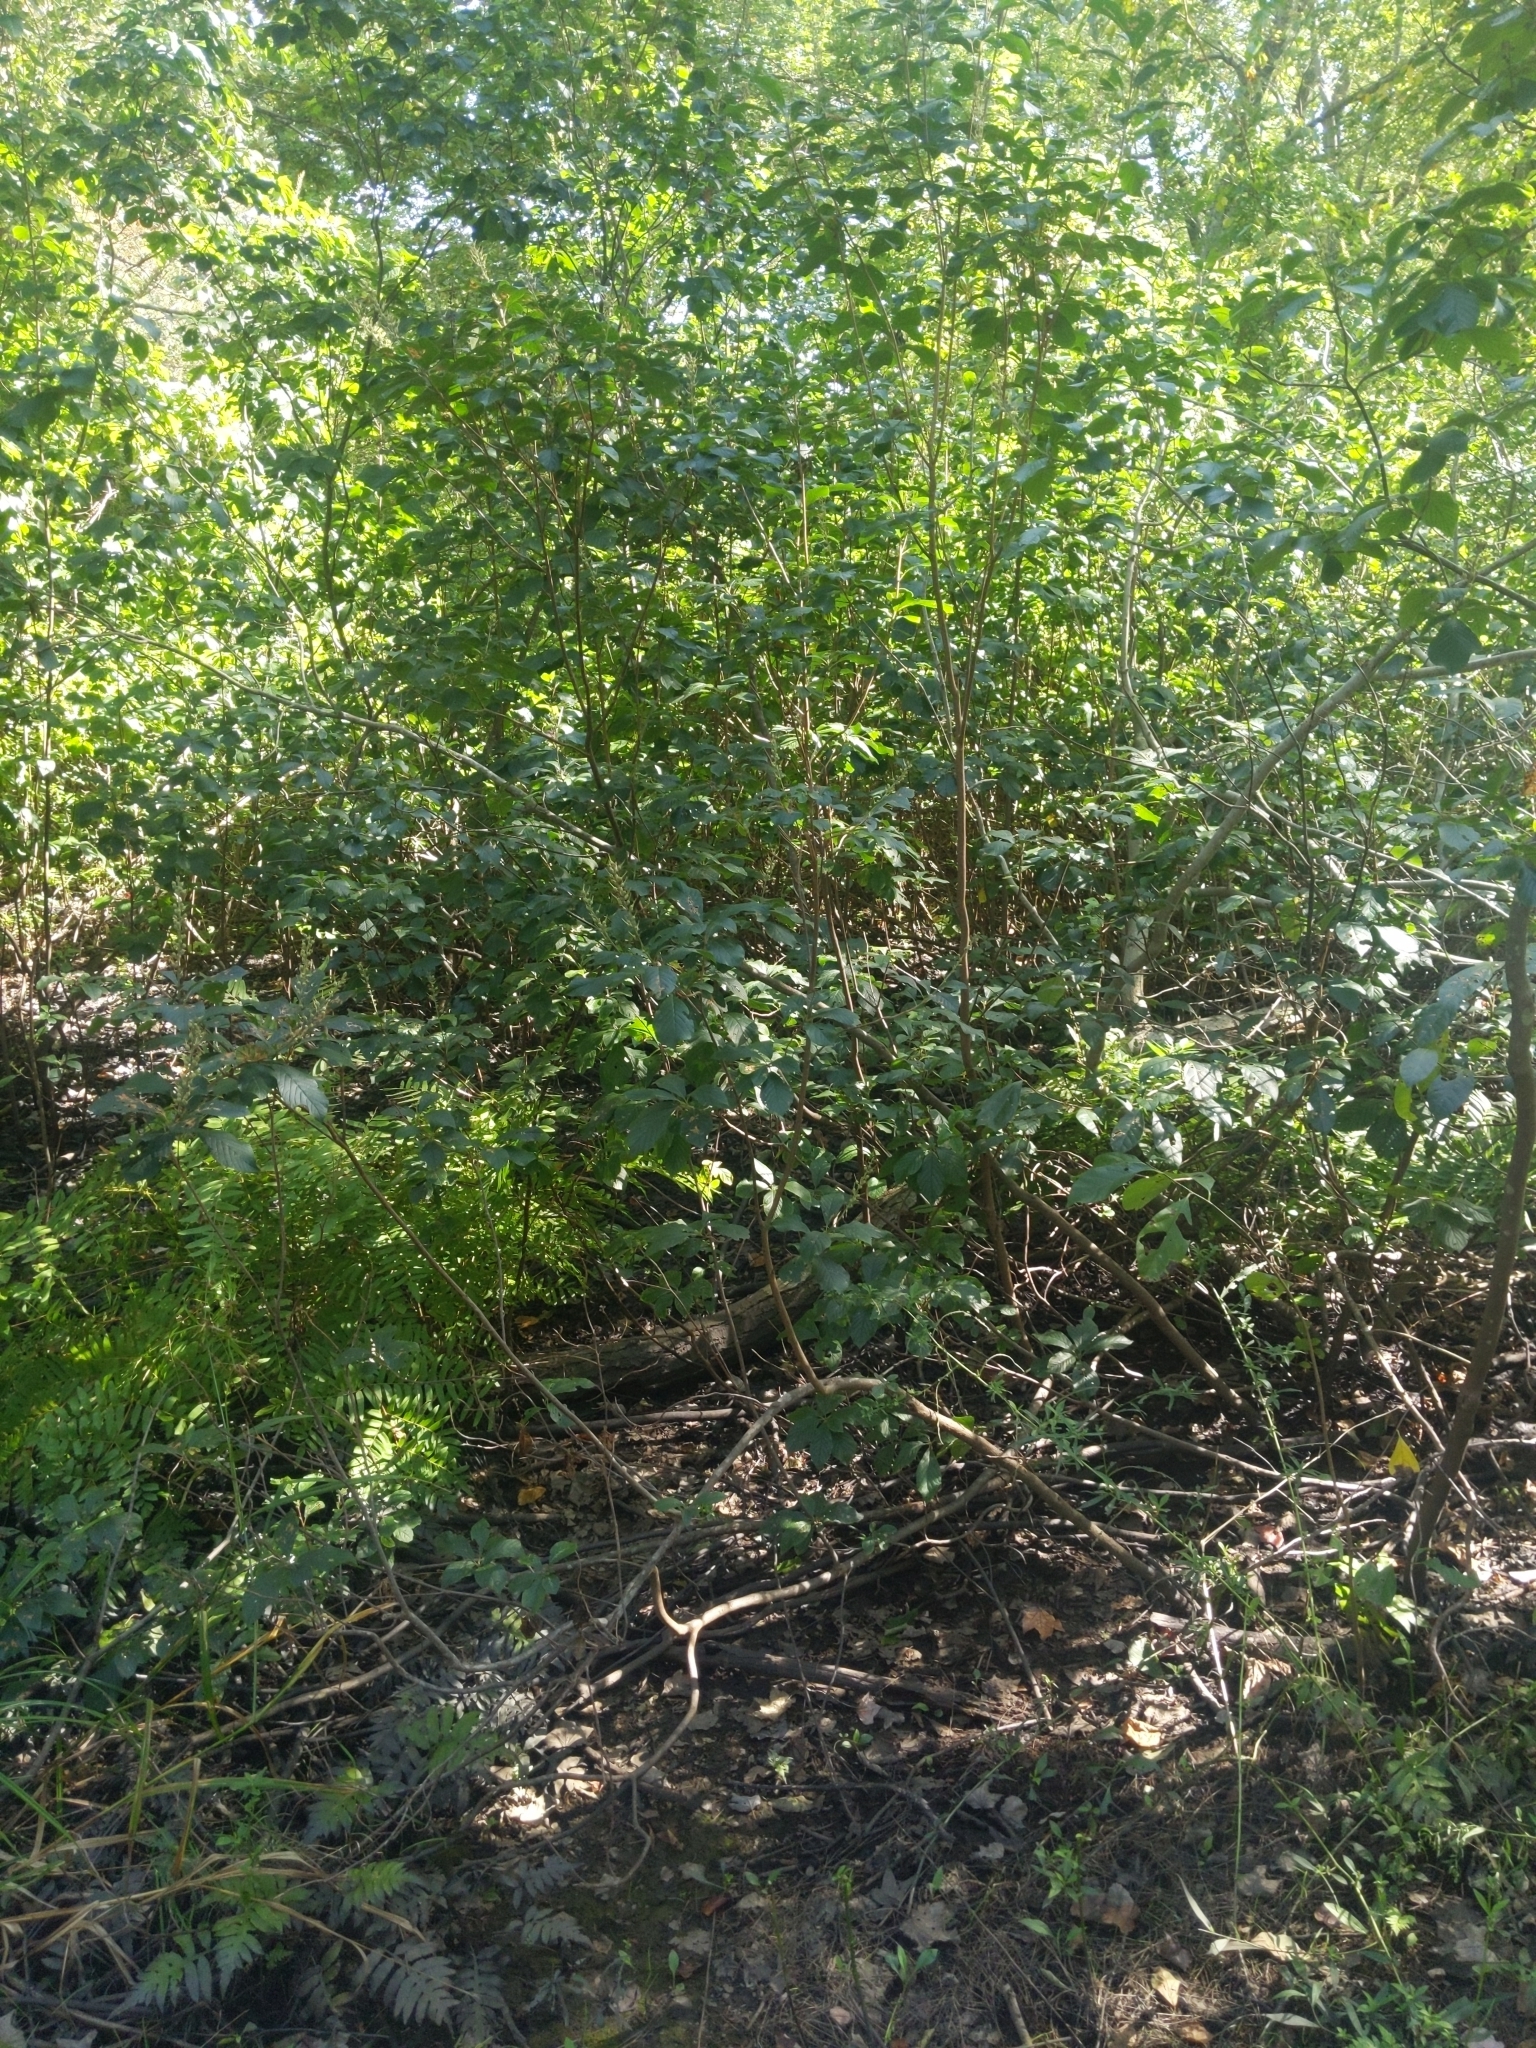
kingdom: Plantae
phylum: Tracheophyta
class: Magnoliopsida
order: Ericales
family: Clethraceae
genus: Clethra
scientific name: Clethra alnifolia
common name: Sweet pepperbush
